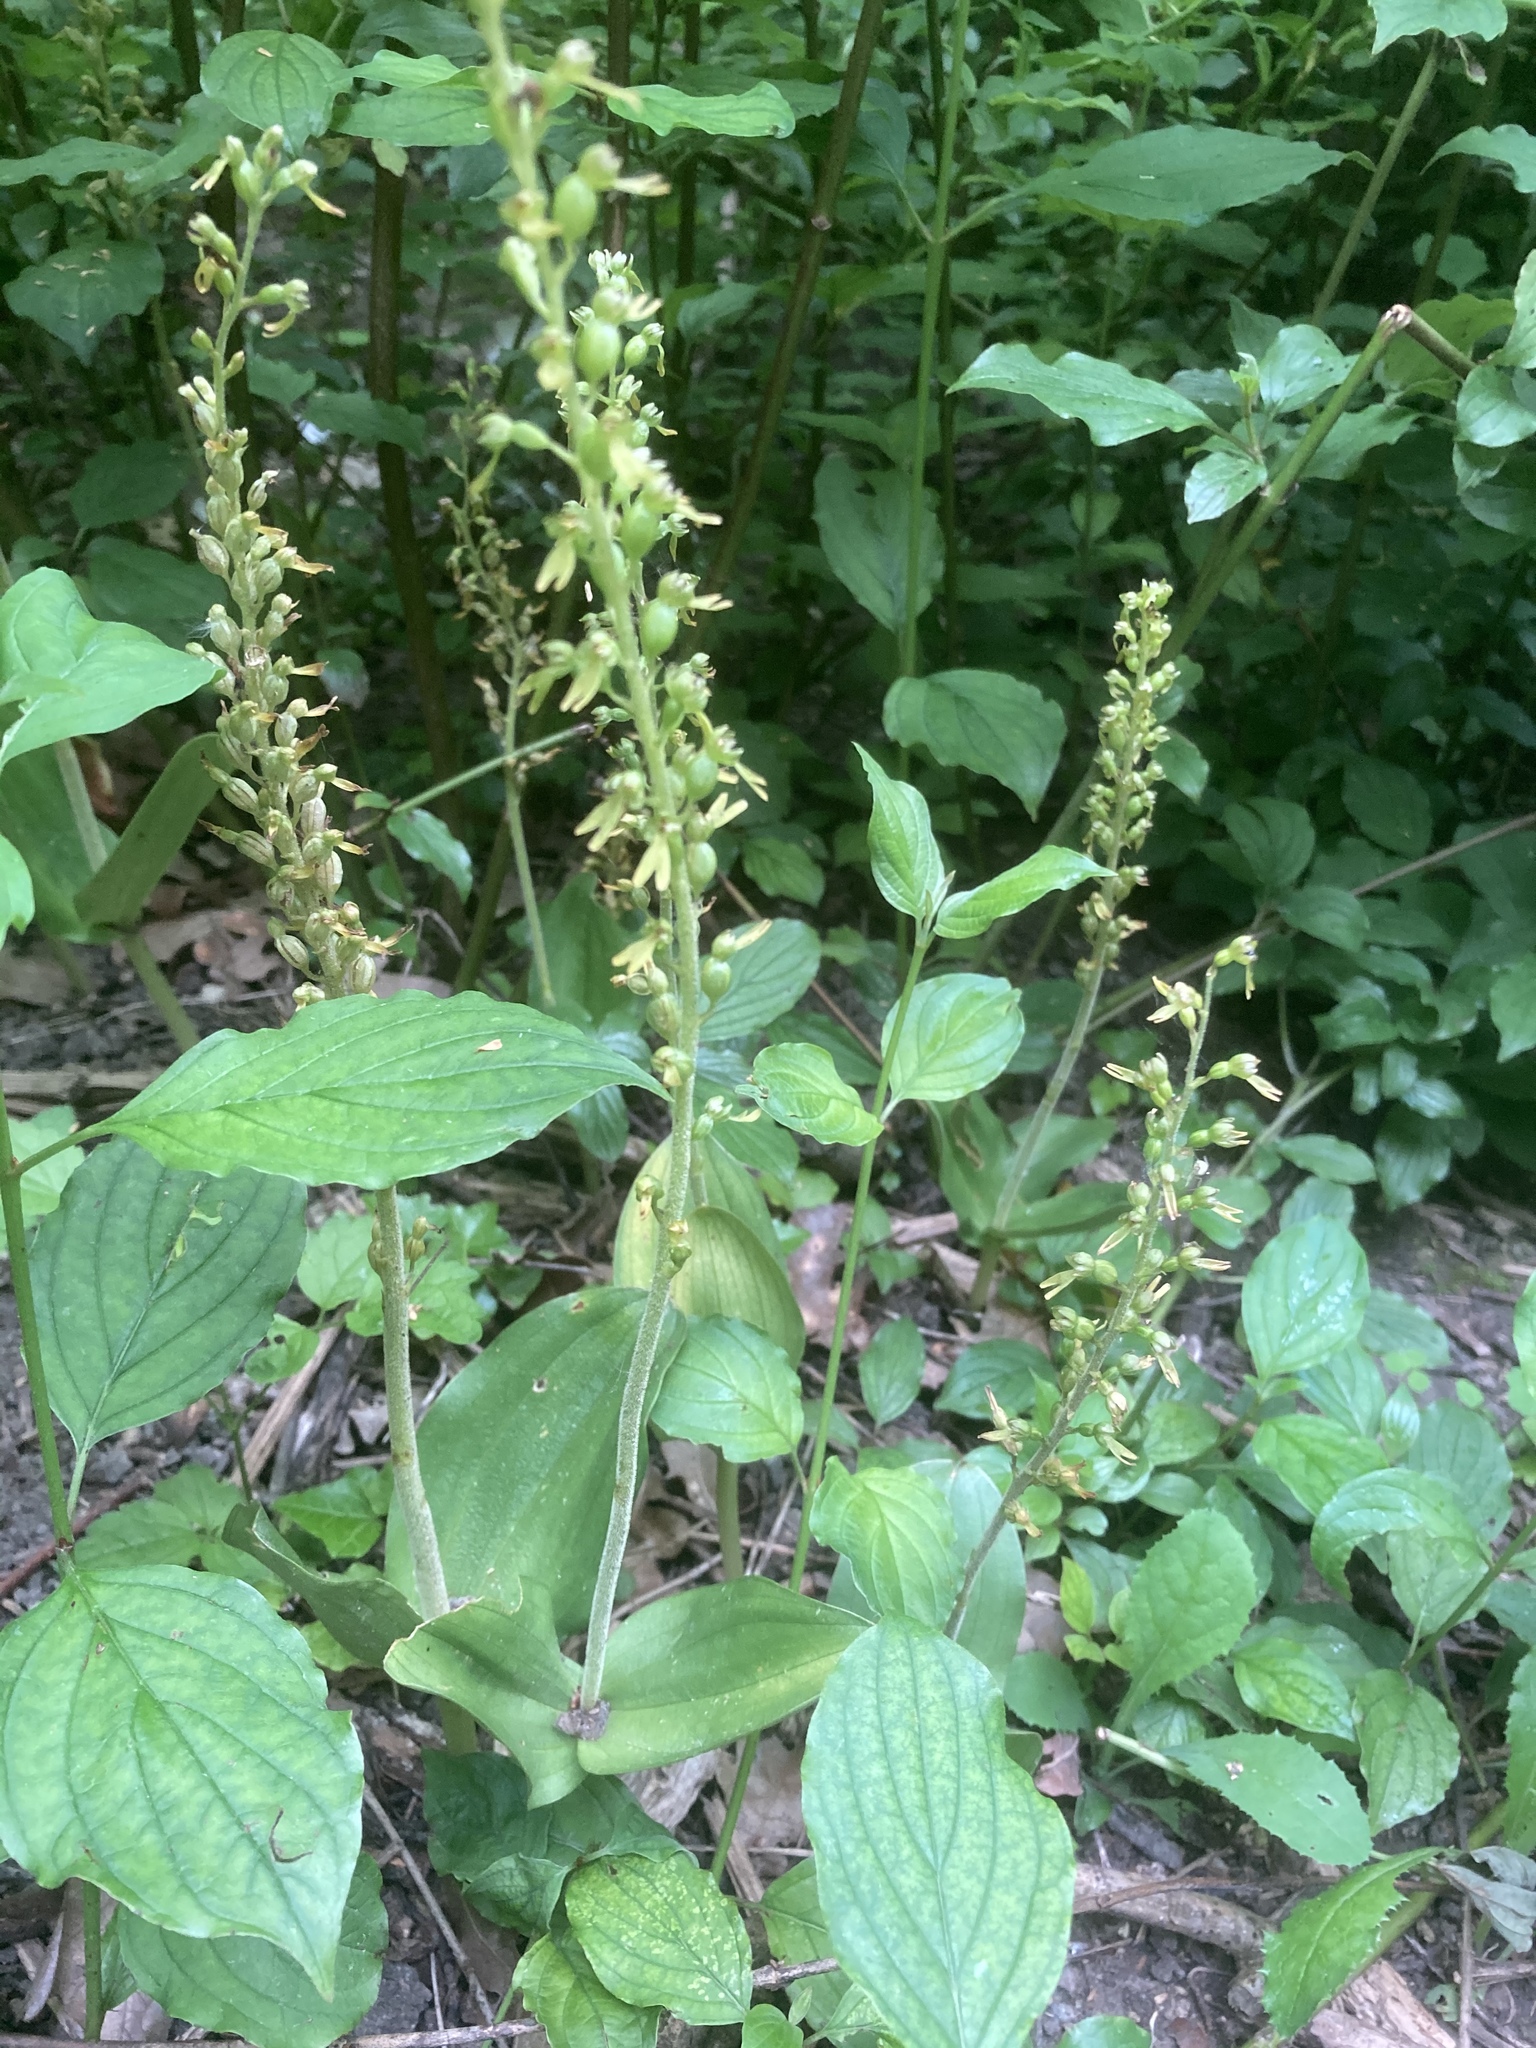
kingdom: Plantae
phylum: Tracheophyta
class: Liliopsida
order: Asparagales
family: Orchidaceae
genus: Neottia
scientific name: Neottia ovata
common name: Common twayblade
